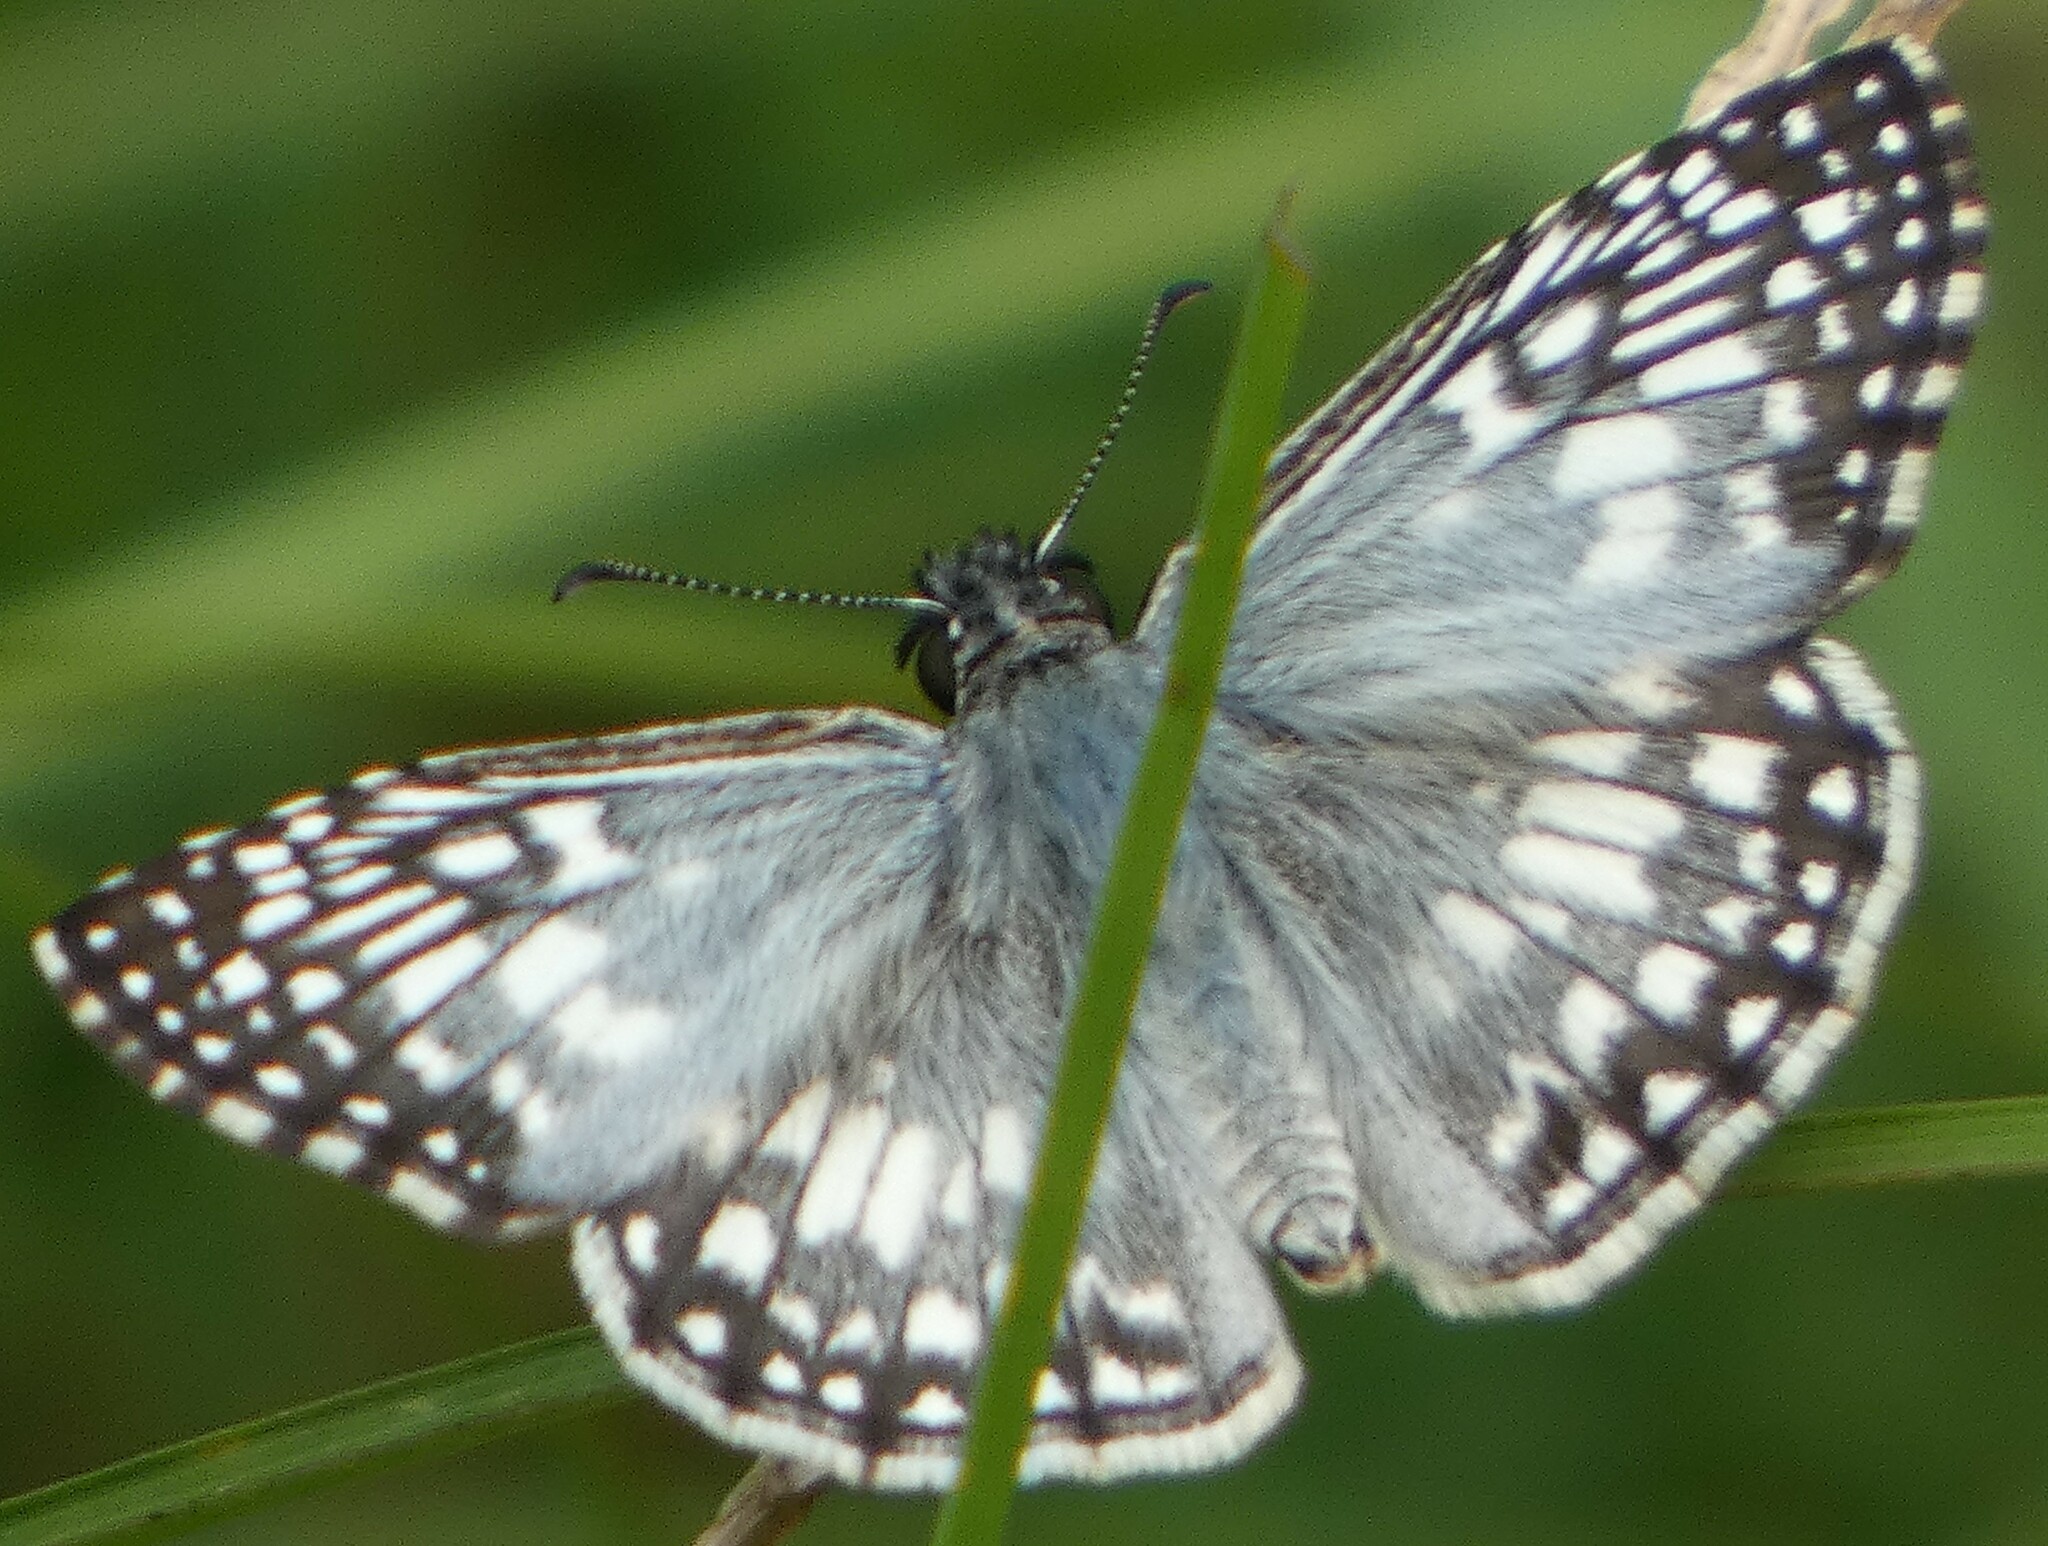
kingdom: Animalia
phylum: Arthropoda
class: Insecta
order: Lepidoptera
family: Hesperiidae
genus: Pyrgus
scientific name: Pyrgus oileus
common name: Tropical checkered-skipper
